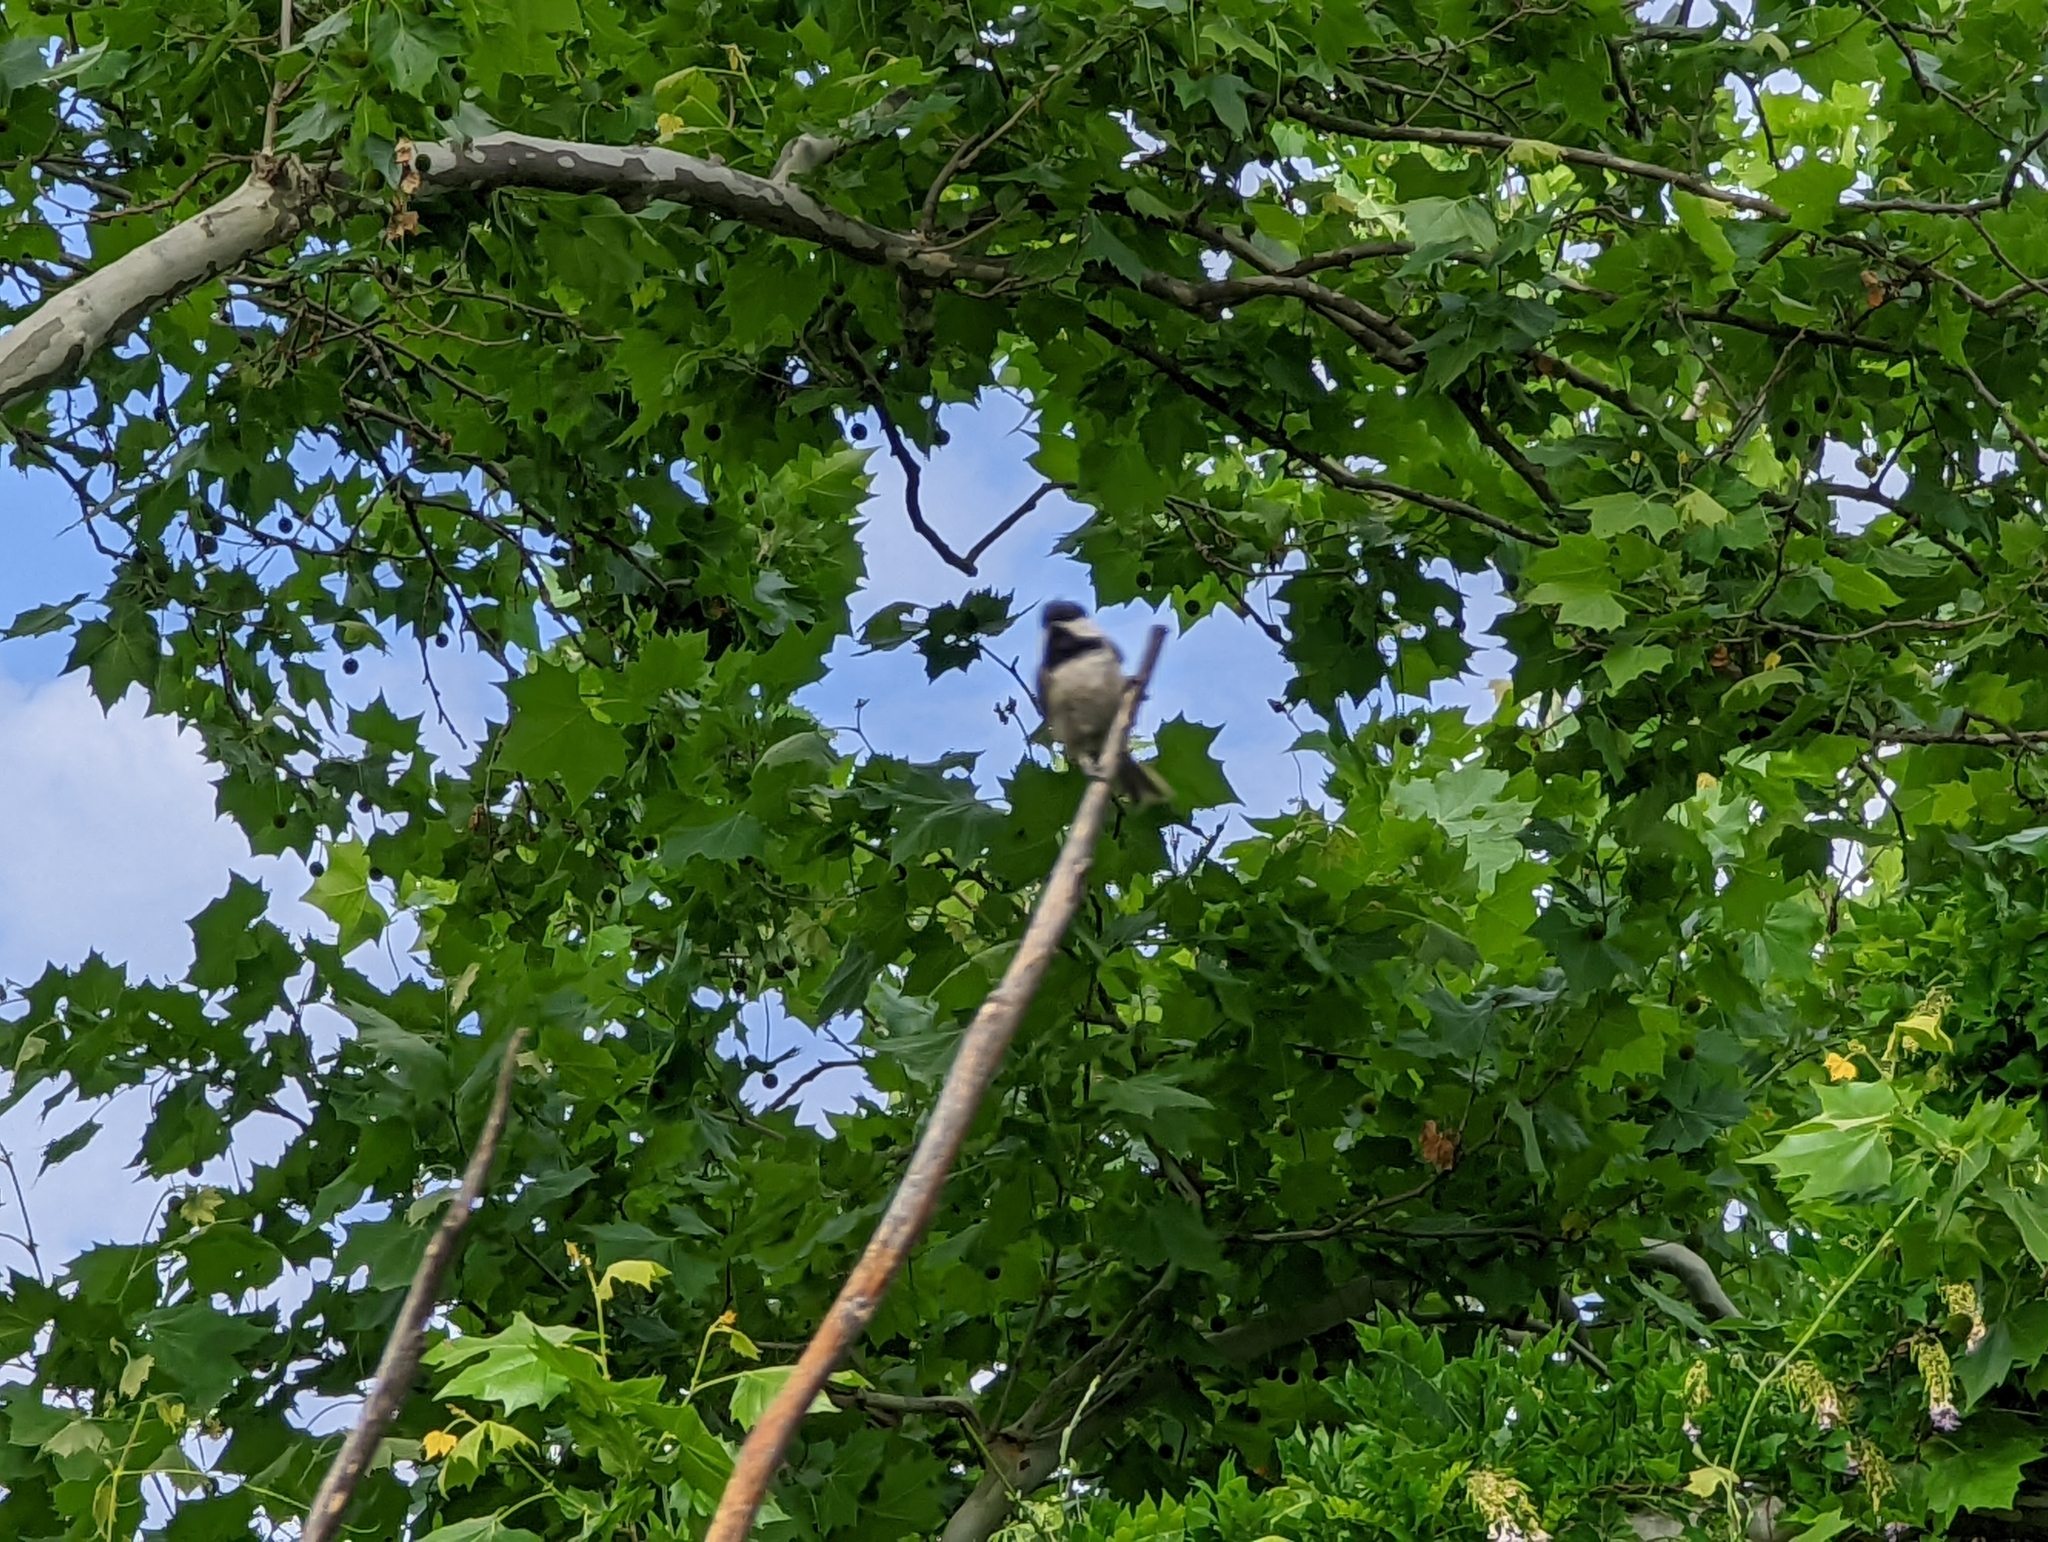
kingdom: Animalia
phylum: Chordata
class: Aves
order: Passeriformes
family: Paridae
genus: Poecile
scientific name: Poecile carolinensis
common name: Carolina chickadee
